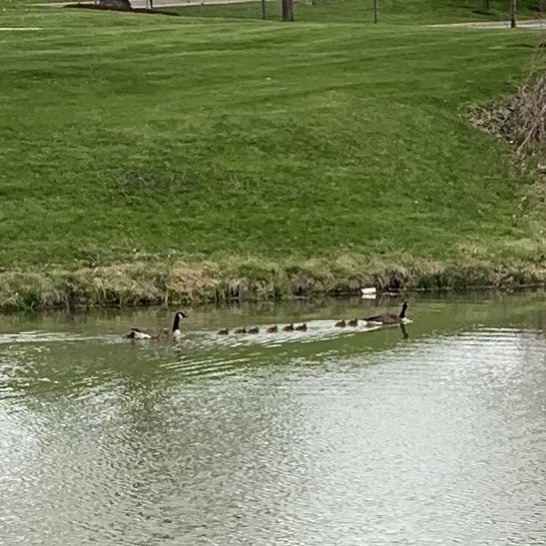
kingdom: Animalia
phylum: Chordata
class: Aves
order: Anseriformes
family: Anatidae
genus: Branta
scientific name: Branta canadensis
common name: Canada goose
